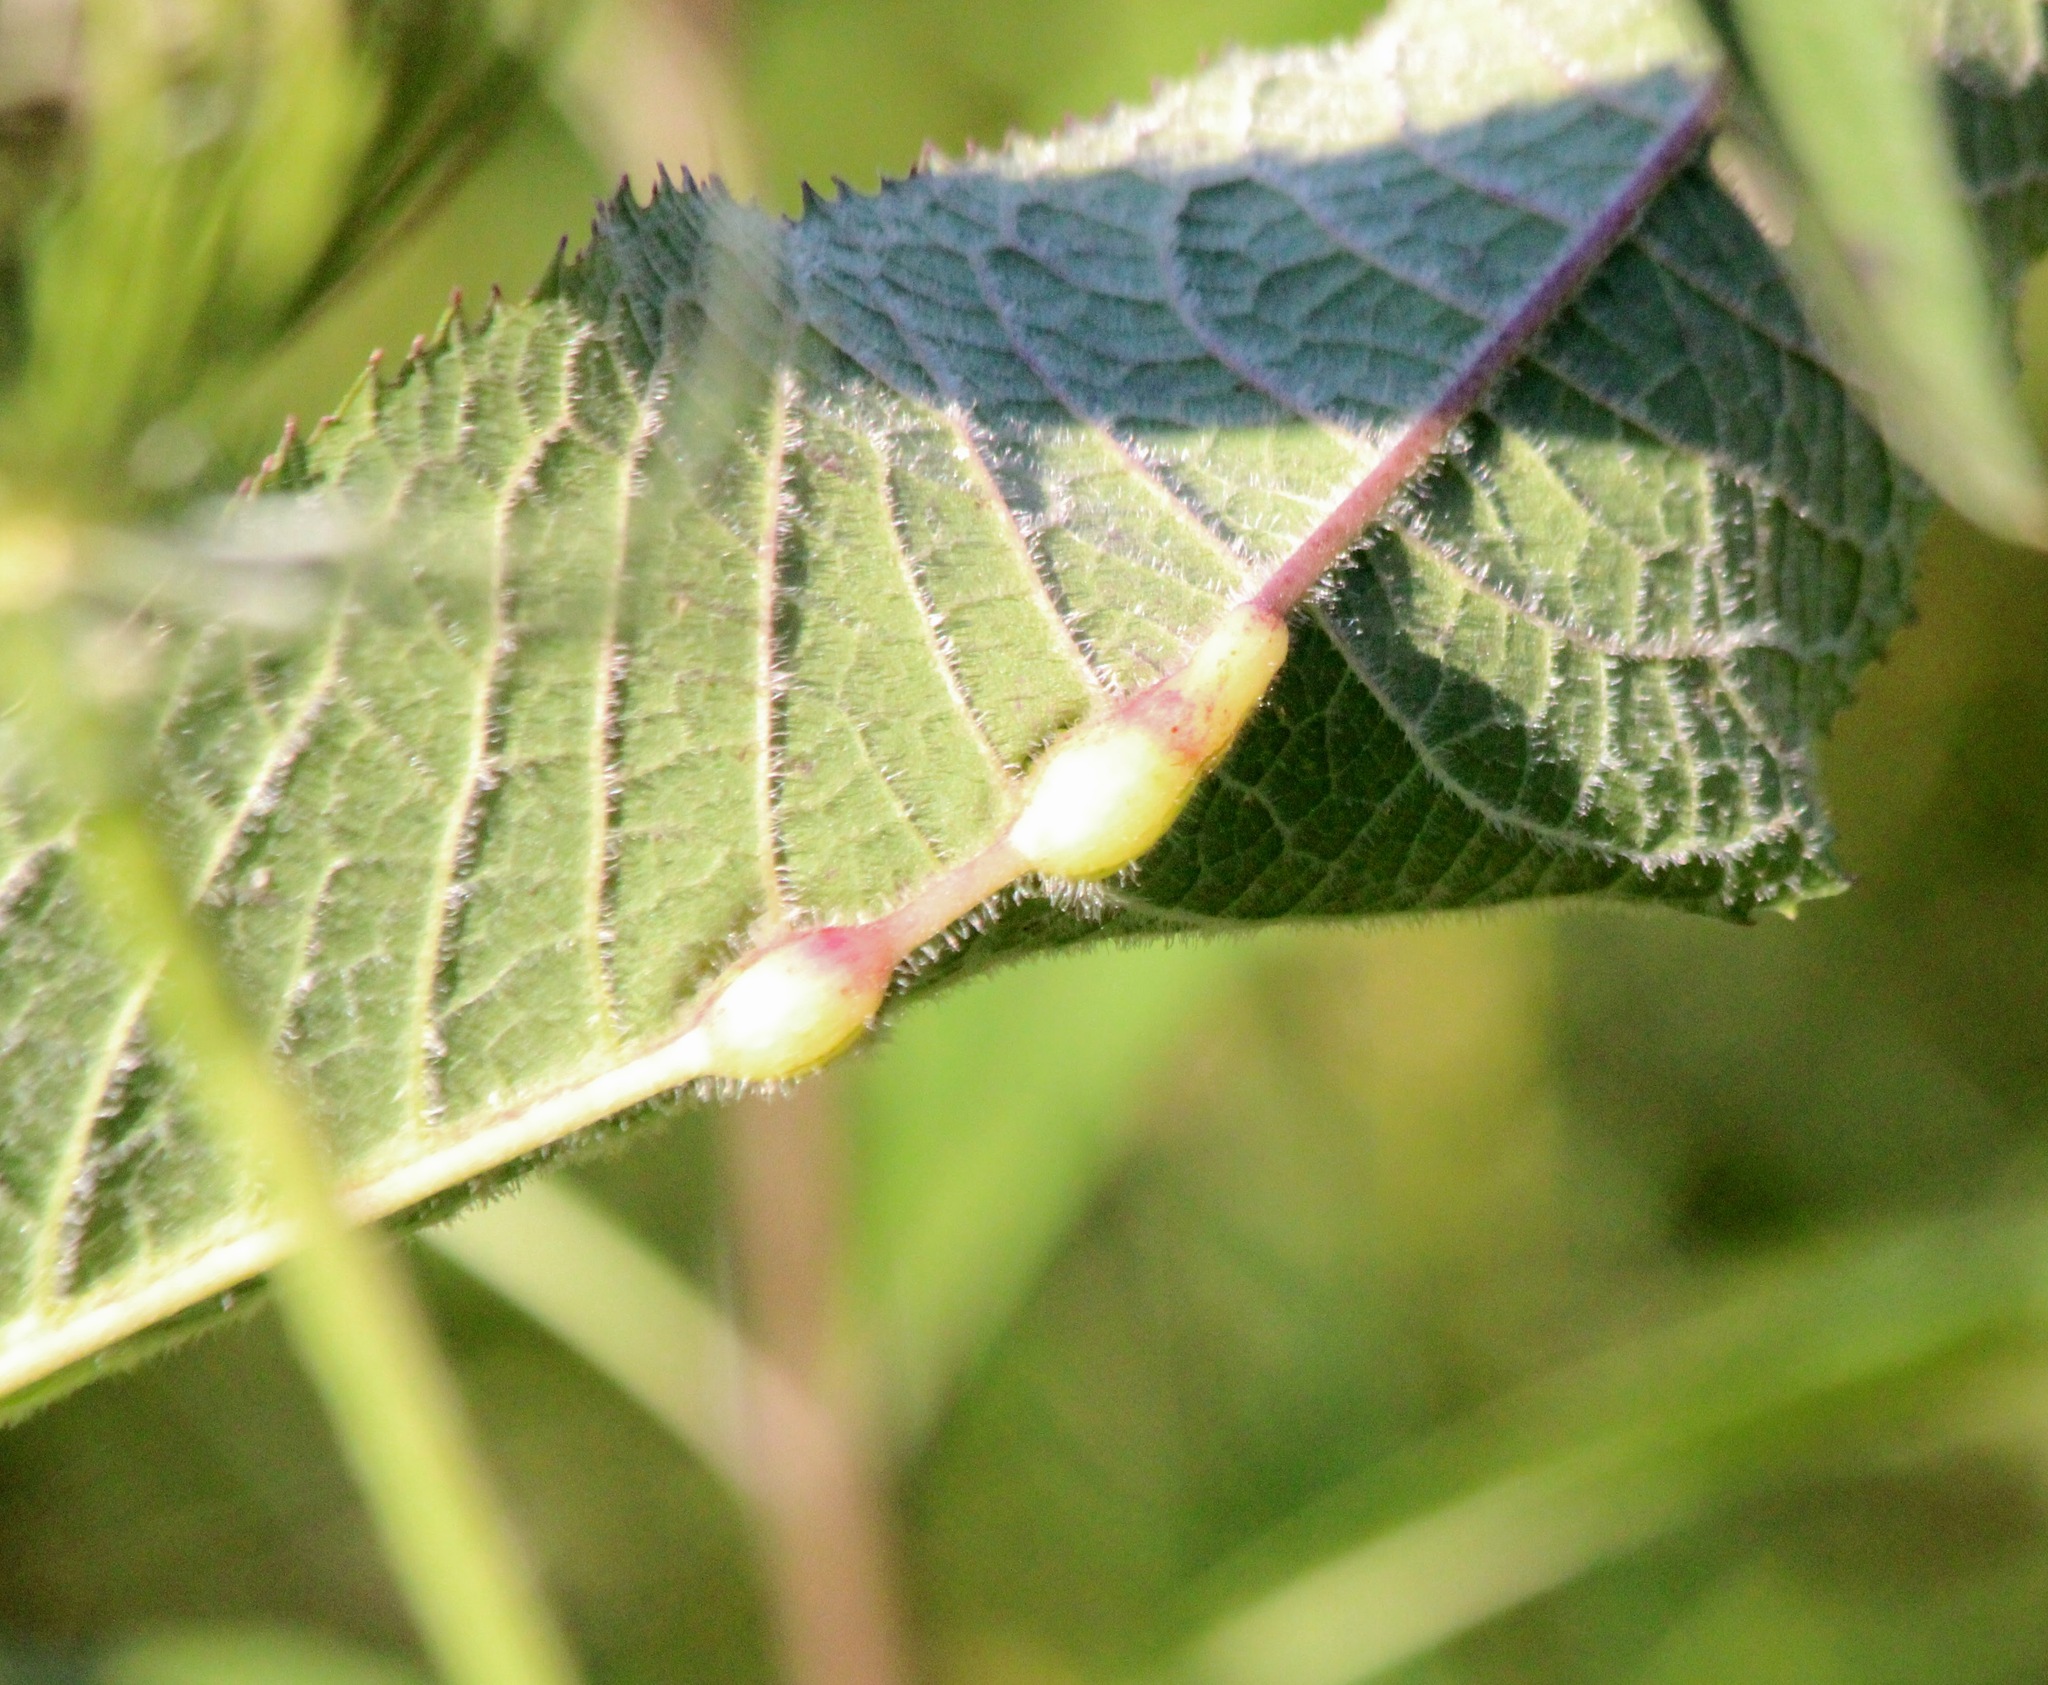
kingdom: Animalia
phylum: Arthropoda
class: Insecta
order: Diptera
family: Cecidomyiidae
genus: Neolasioptera
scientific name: Neolasioptera vernoniae
